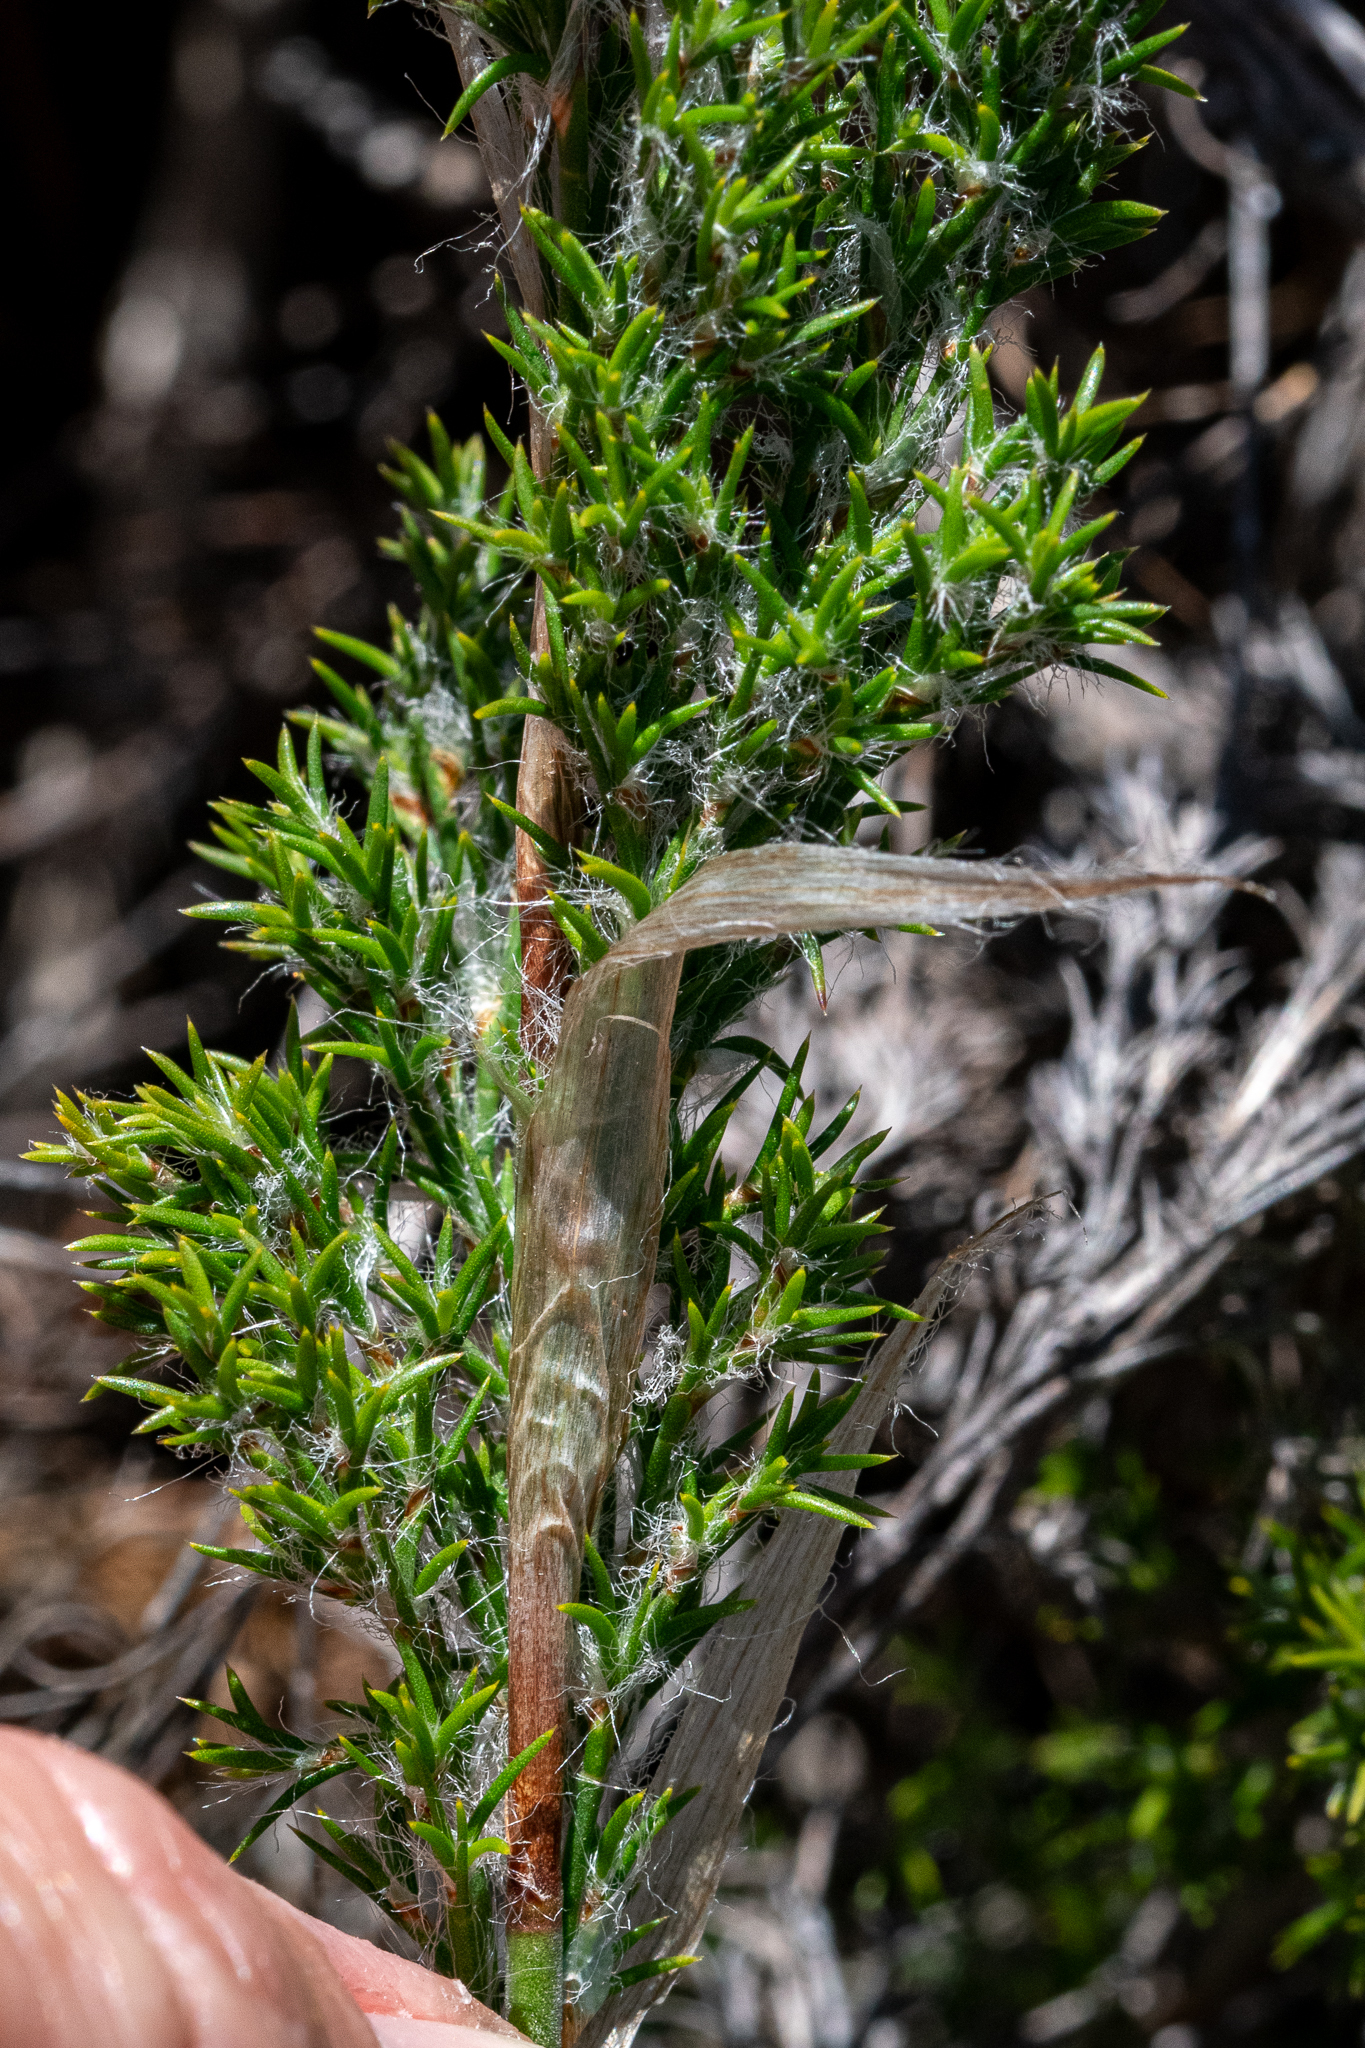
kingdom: Plantae
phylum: Tracheophyta
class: Liliopsida
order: Poales
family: Restionaceae
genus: Thamnochortus
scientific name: Thamnochortus fruticosus
